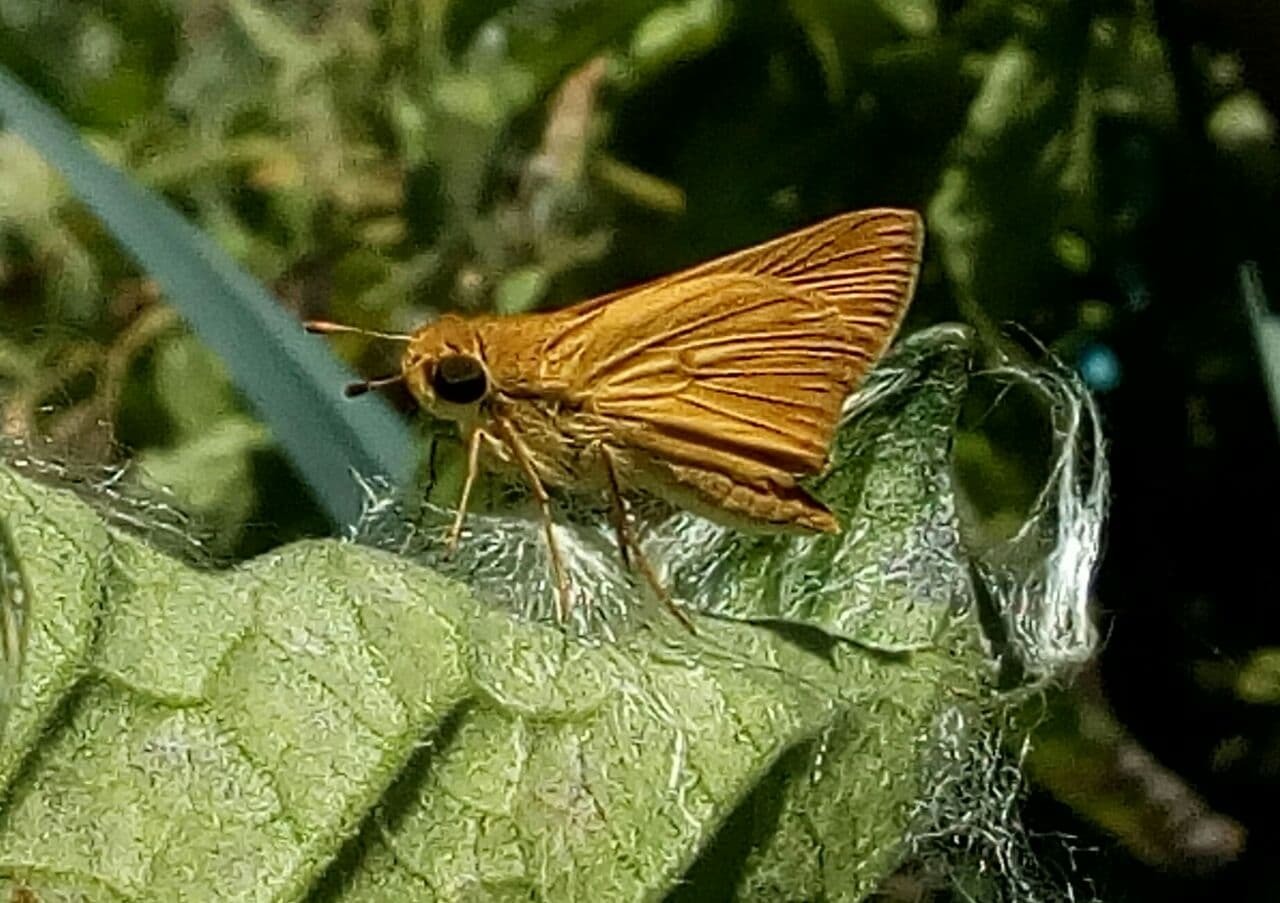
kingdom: Animalia
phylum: Arthropoda
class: Insecta
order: Lepidoptera
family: Hesperiidae
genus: Corticea
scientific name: Corticea immocerinus
